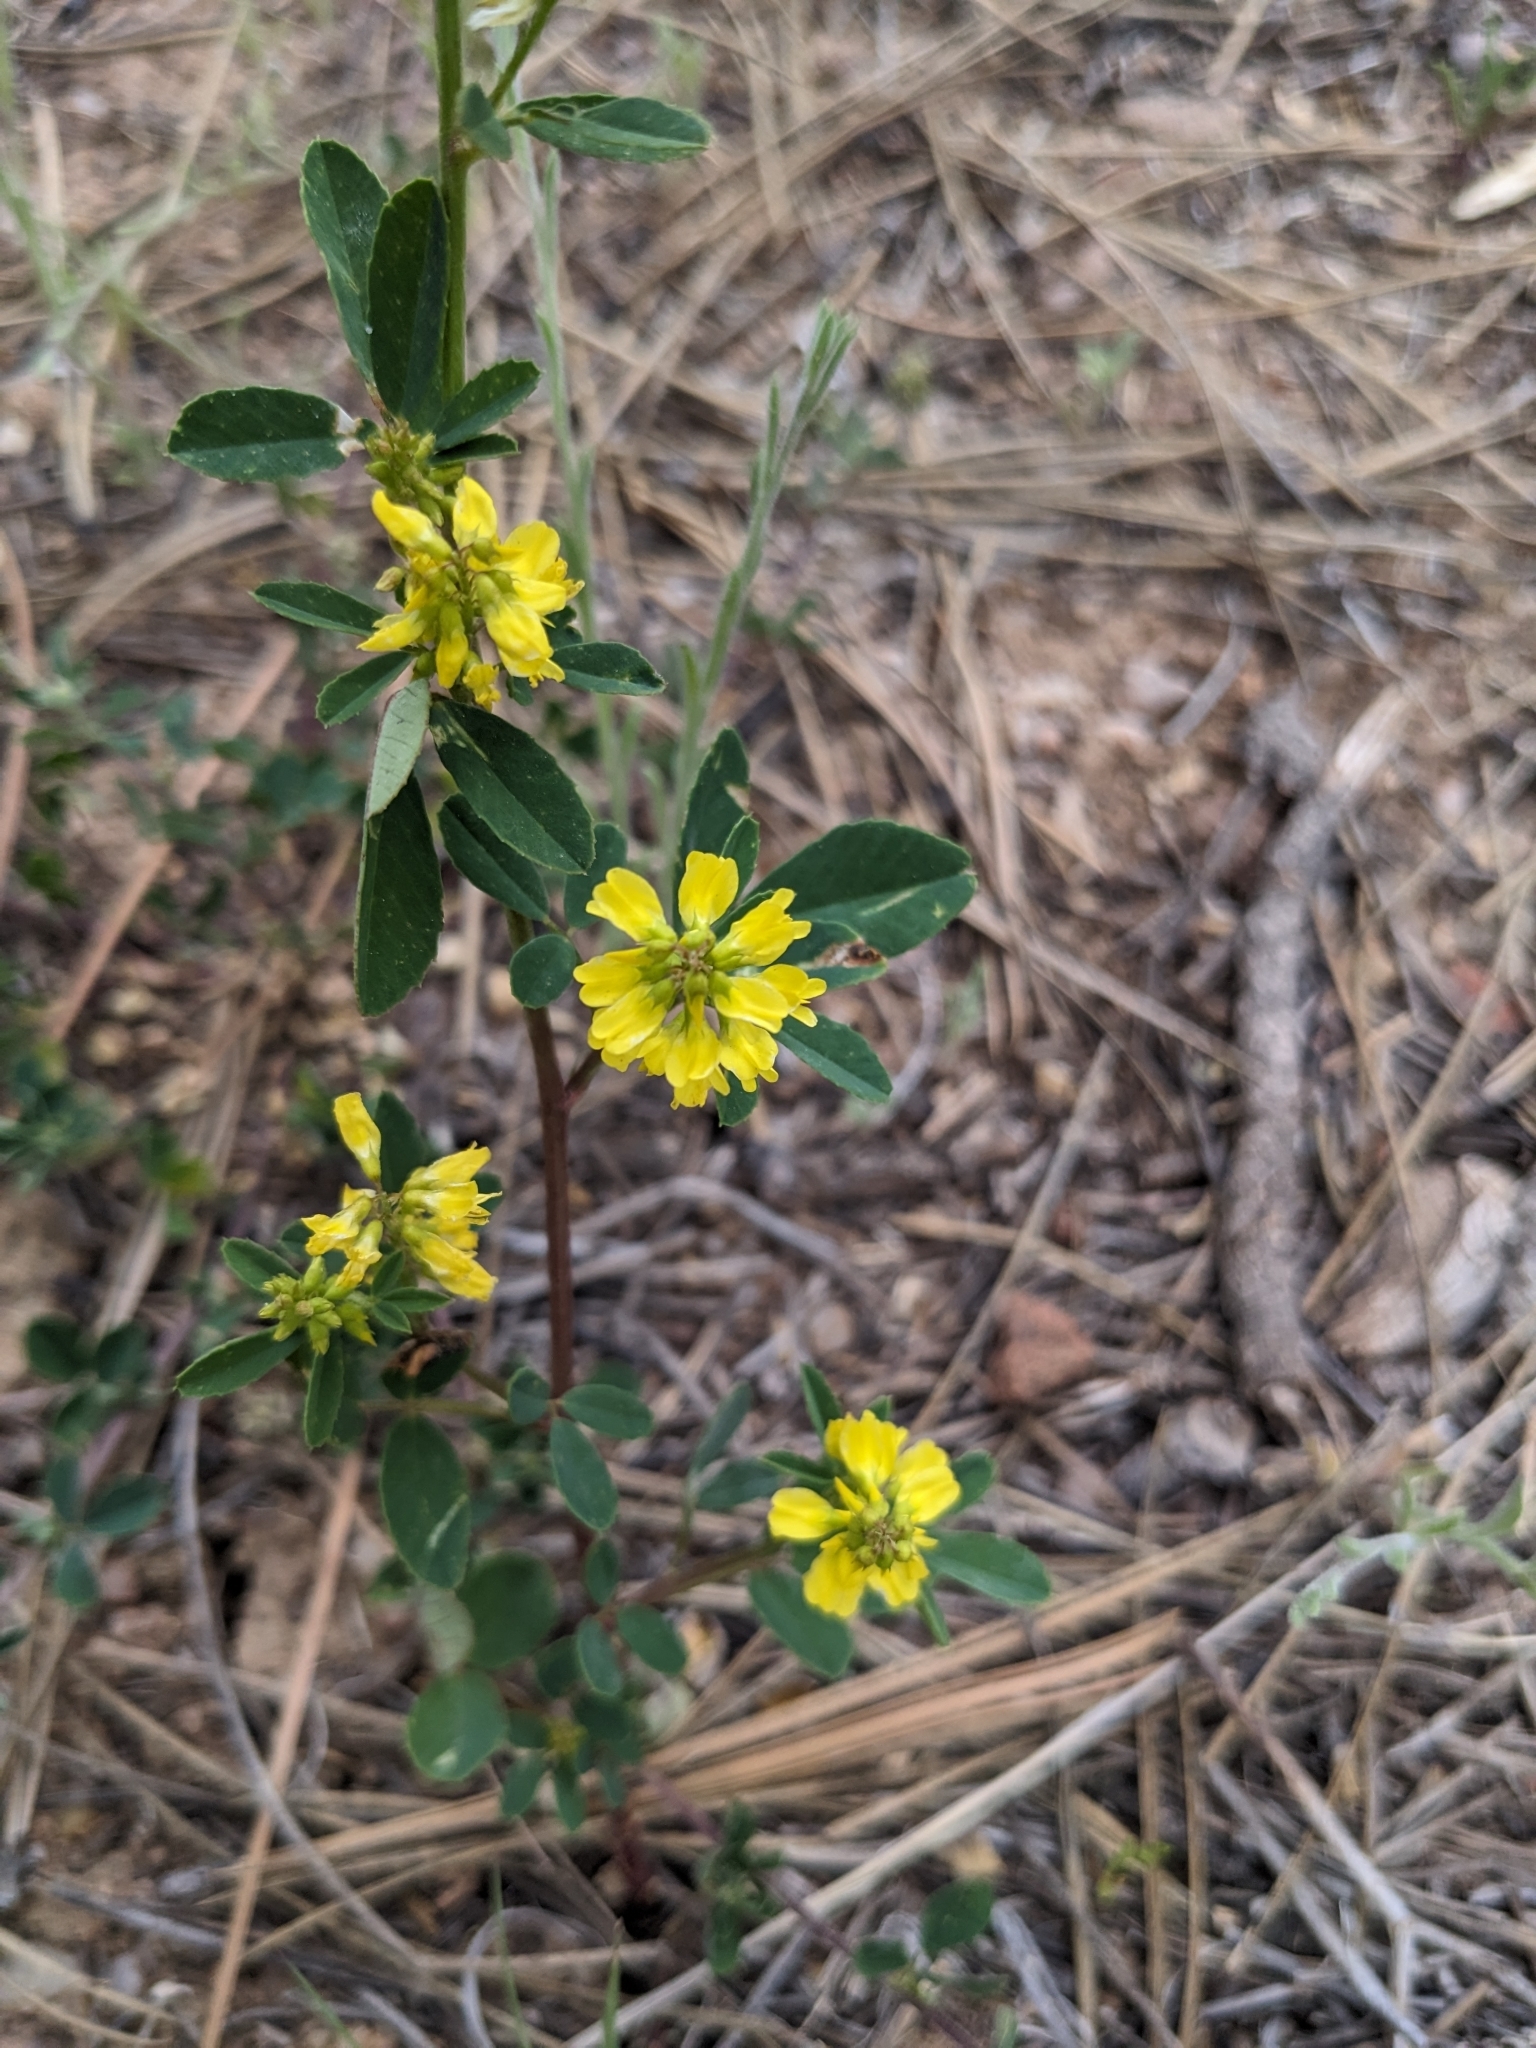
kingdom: Plantae
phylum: Tracheophyta
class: Magnoliopsida
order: Fabales
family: Fabaceae
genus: Melilotus
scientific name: Melilotus officinalis
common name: Sweetclover
